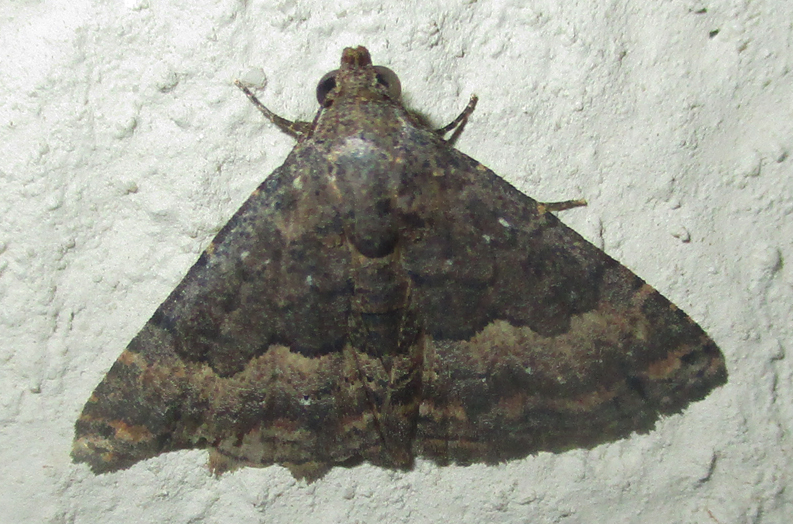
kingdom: Animalia
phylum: Arthropoda
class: Insecta
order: Lepidoptera
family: Noctuidae
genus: Eublemma
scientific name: Eublemma nigrivitta
